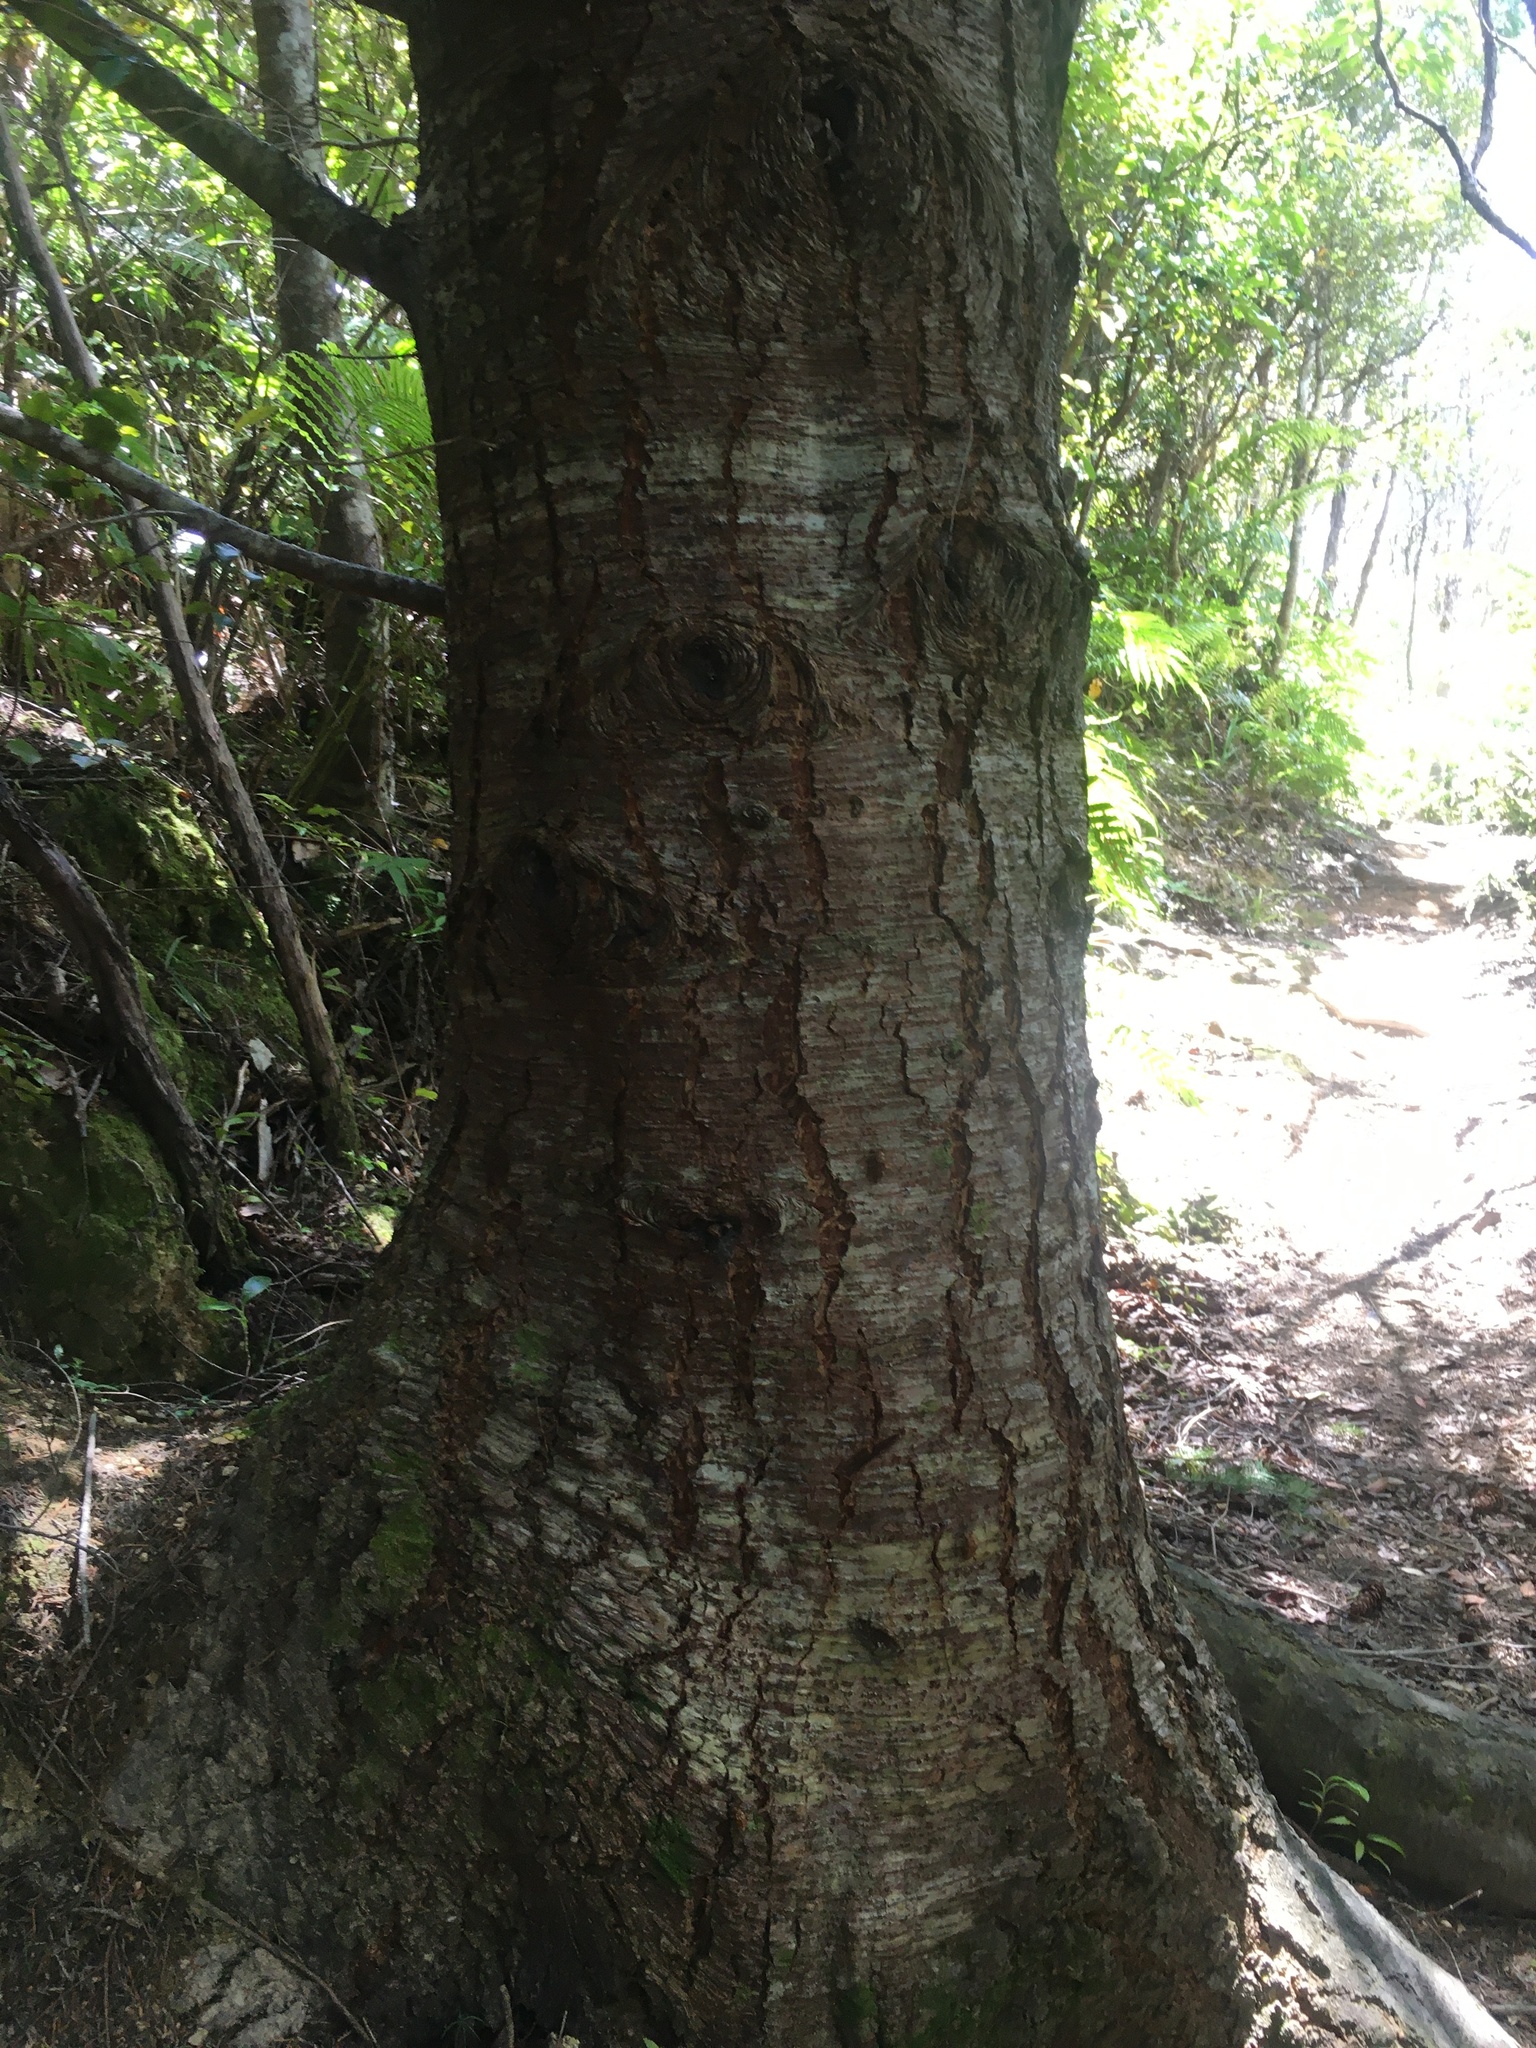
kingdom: Plantae
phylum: Tracheophyta
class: Pinopsida
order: Pinales
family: Pinaceae
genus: Pseudotsuga
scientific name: Pseudotsuga menziesii
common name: Douglas fir
